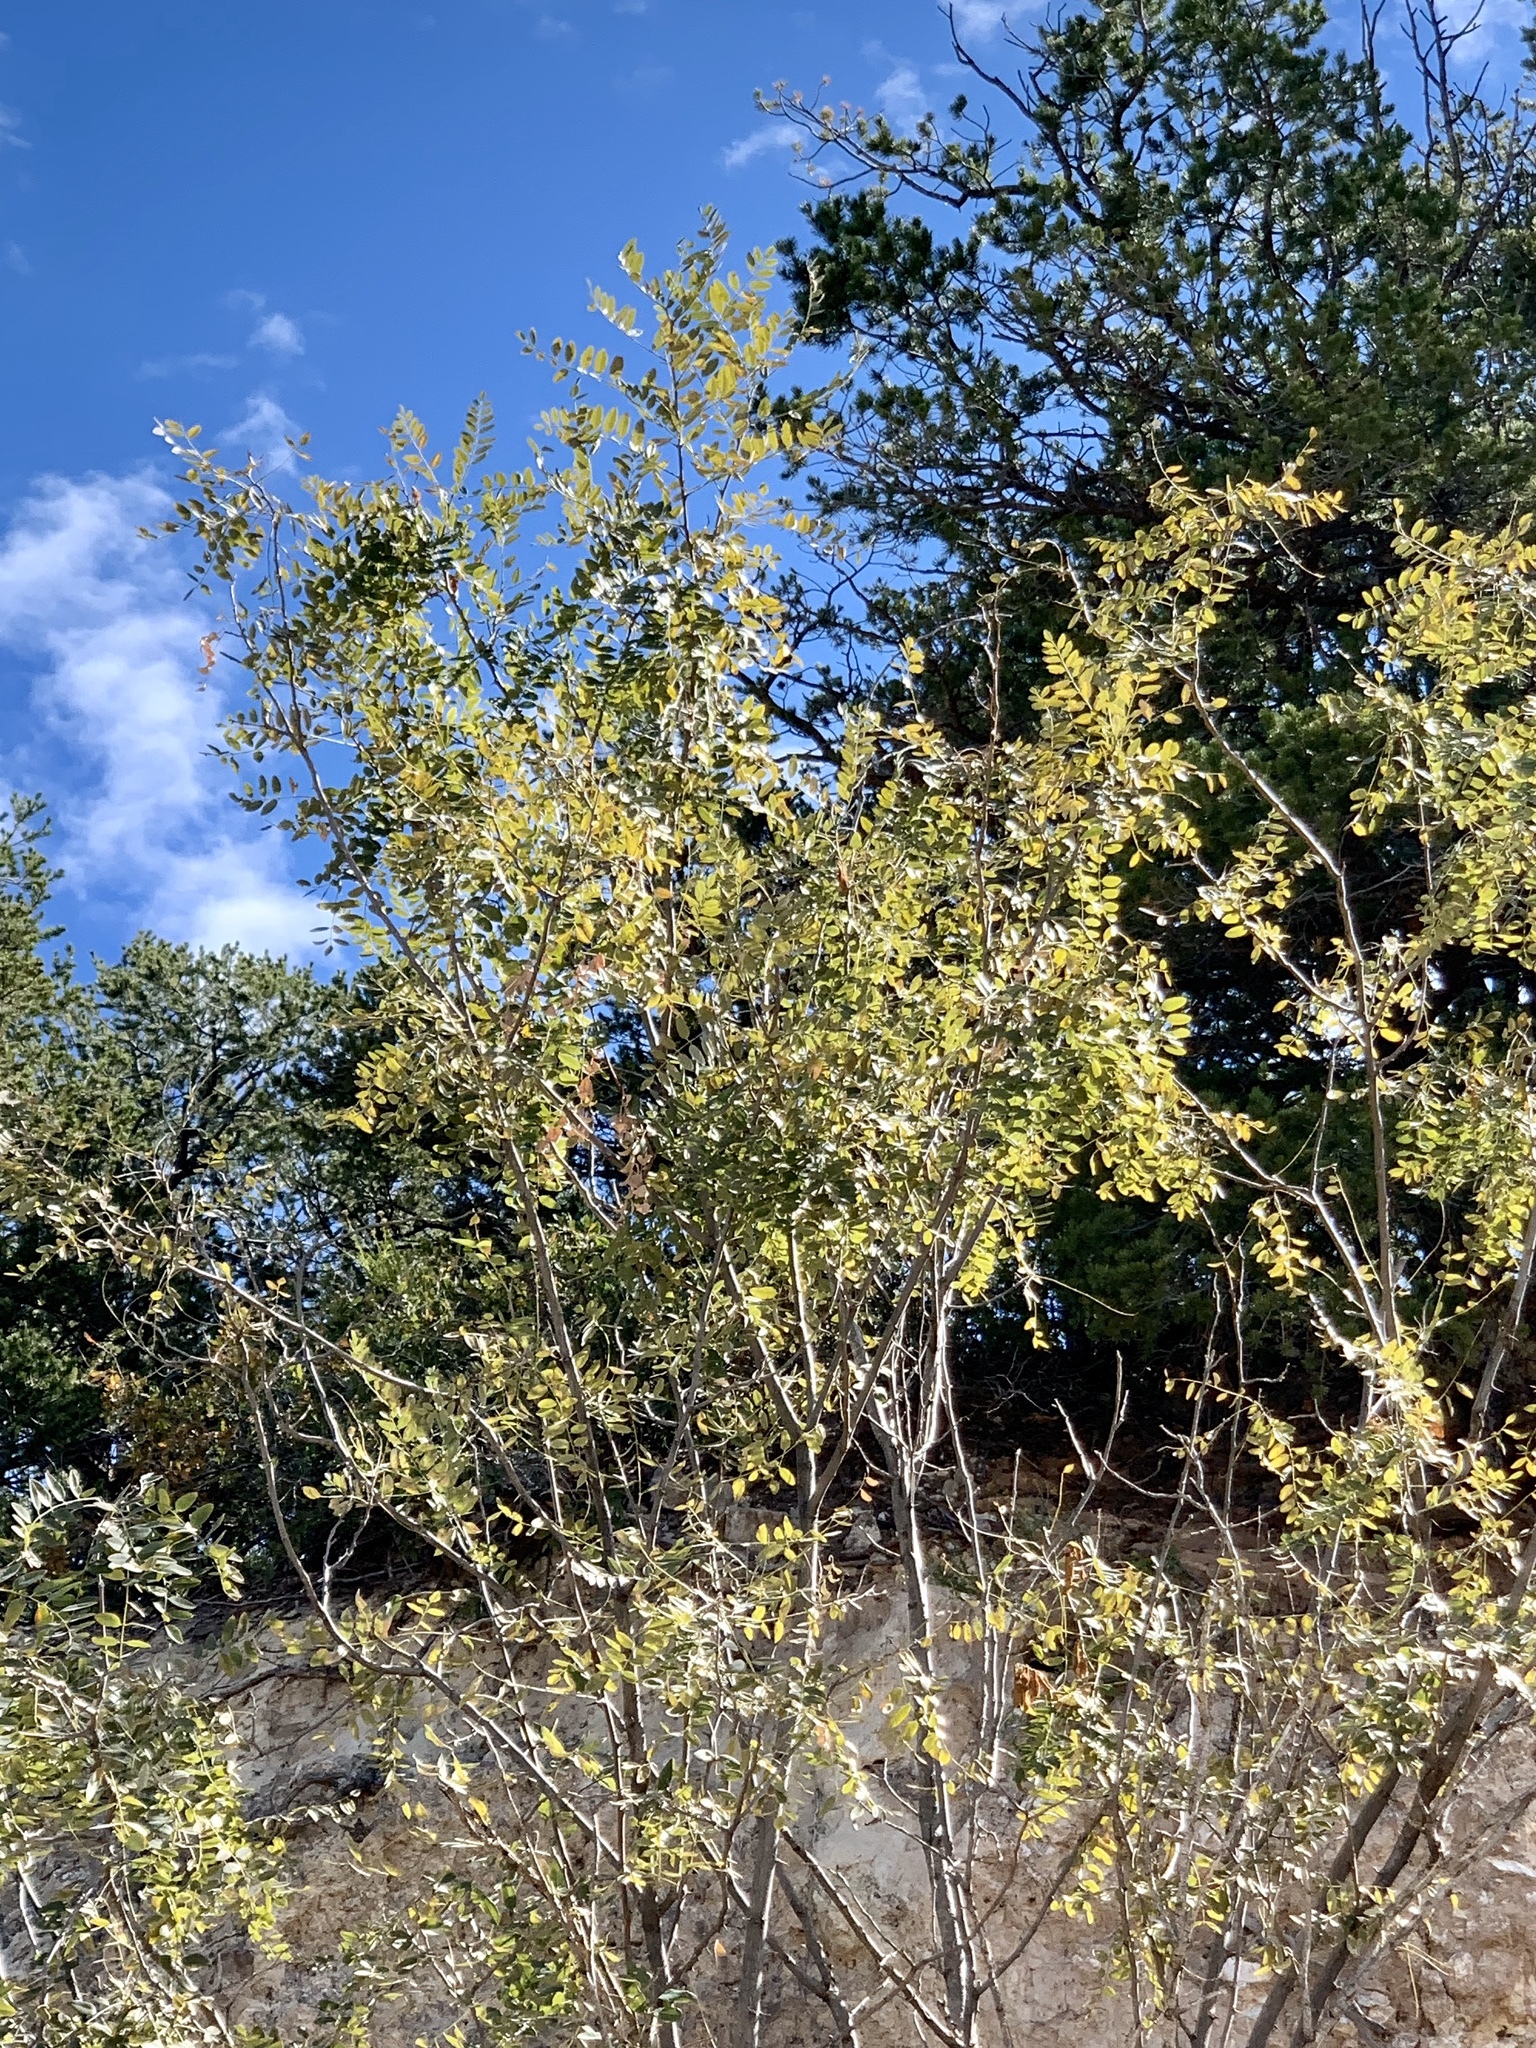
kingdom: Plantae
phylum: Tracheophyta
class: Magnoliopsida
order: Fabales
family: Fabaceae
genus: Robinia
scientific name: Robinia neomexicana
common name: New mexico locust
